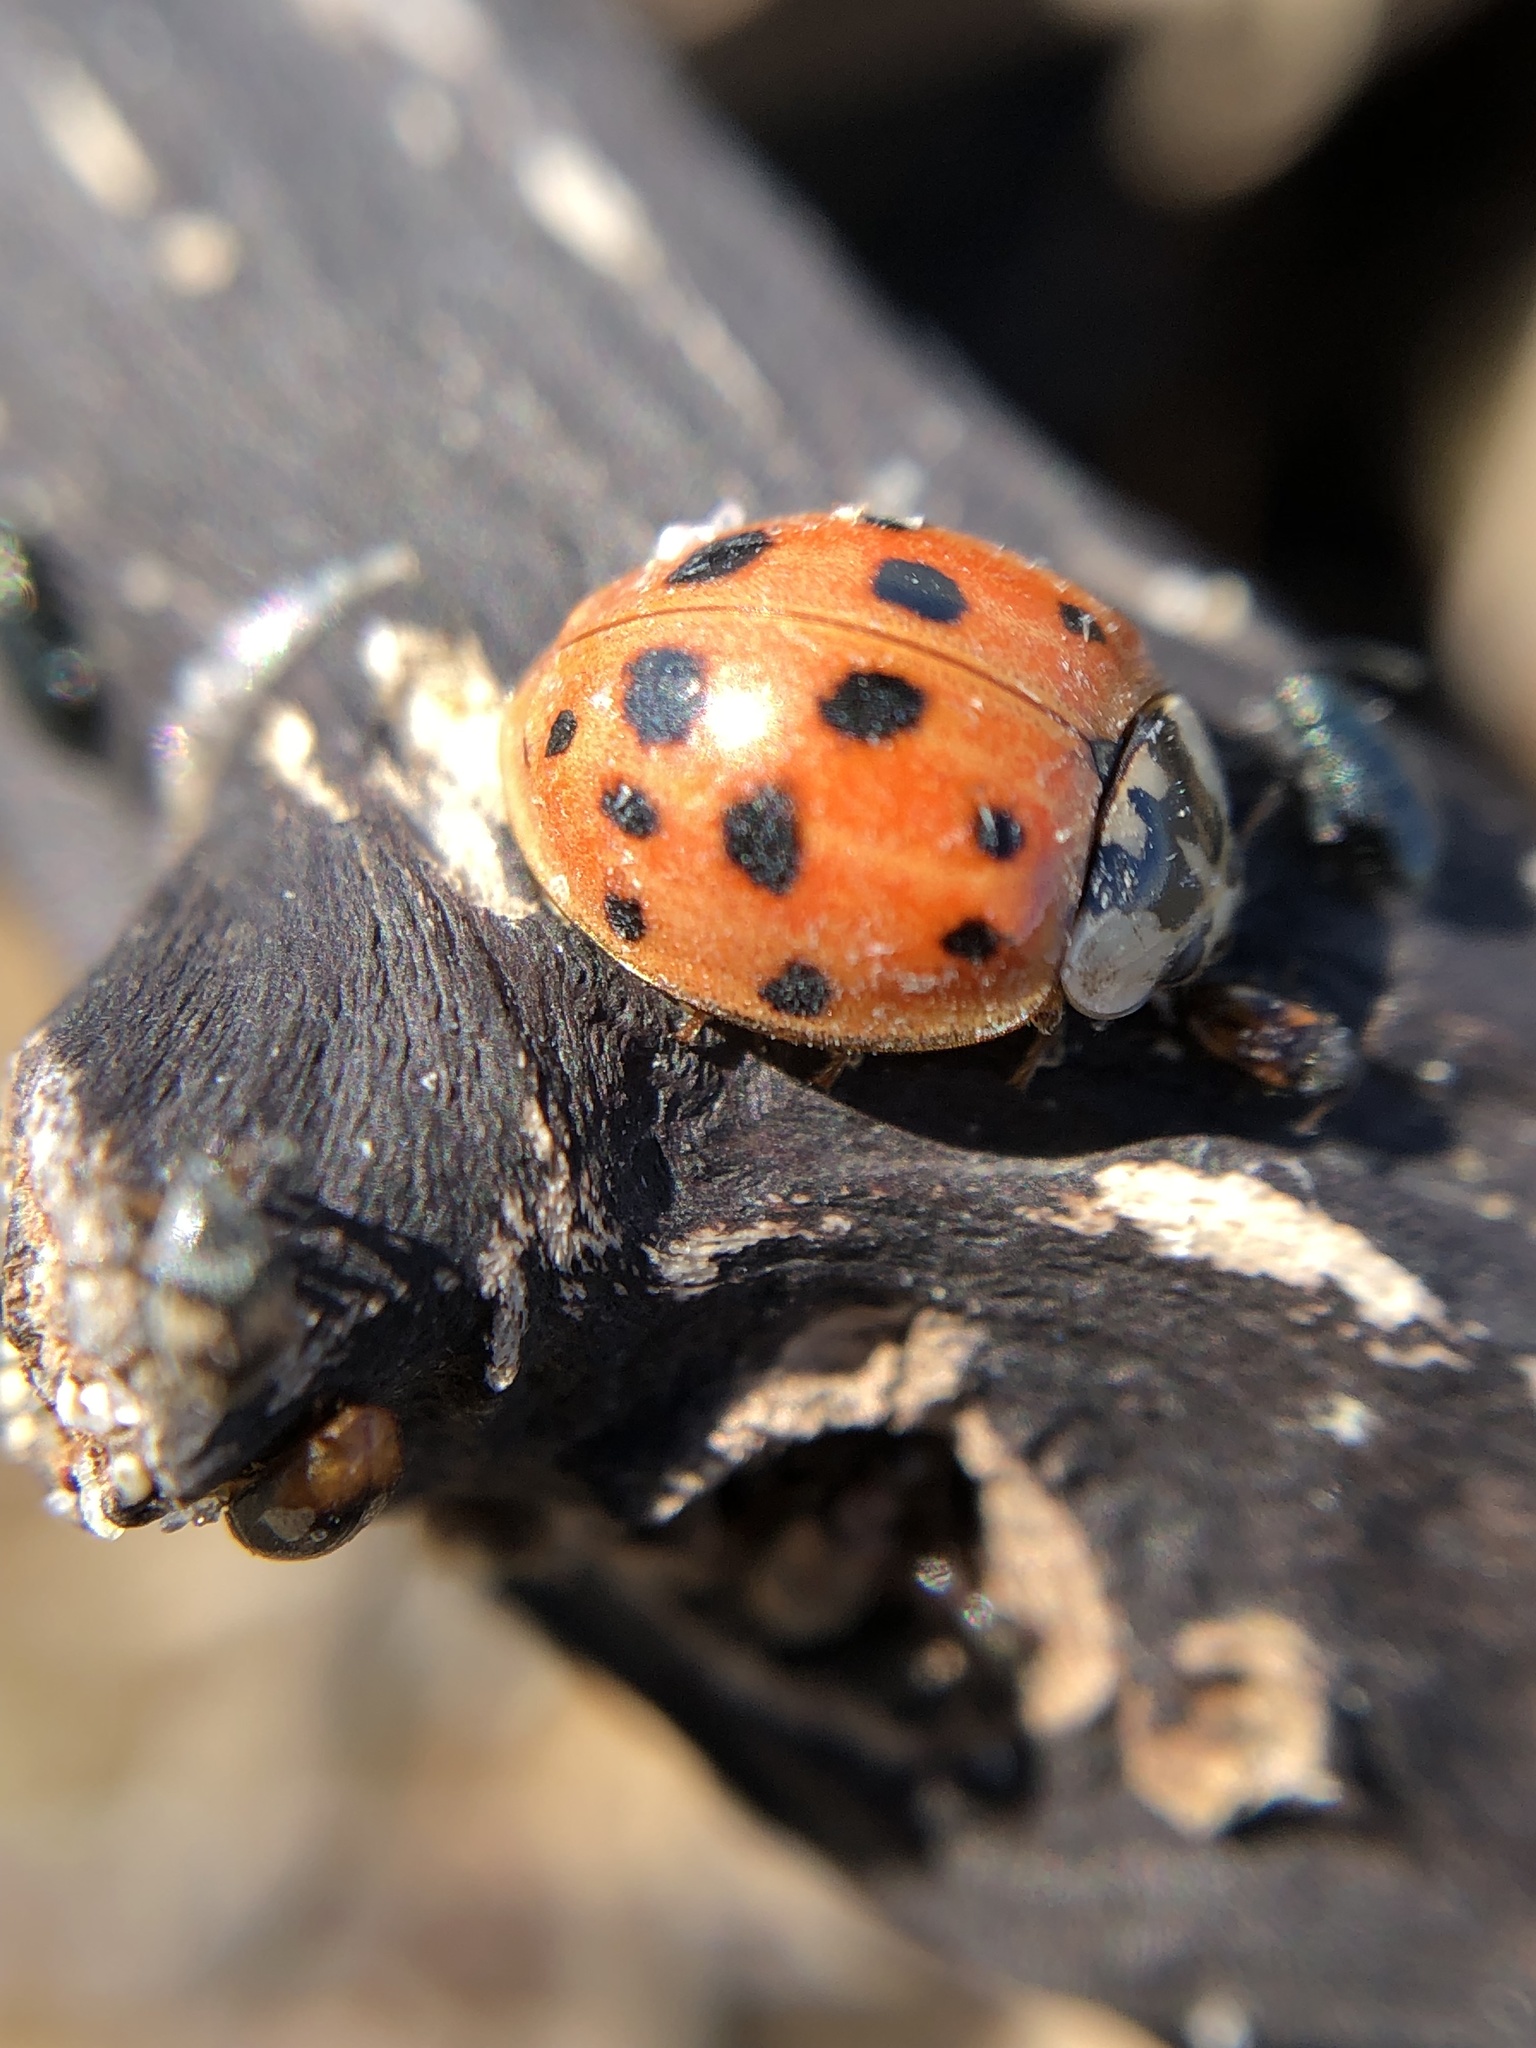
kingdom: Animalia
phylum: Arthropoda
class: Insecta
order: Coleoptera
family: Coccinellidae
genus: Harmonia
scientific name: Harmonia axyridis
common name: Harlequin ladybird
